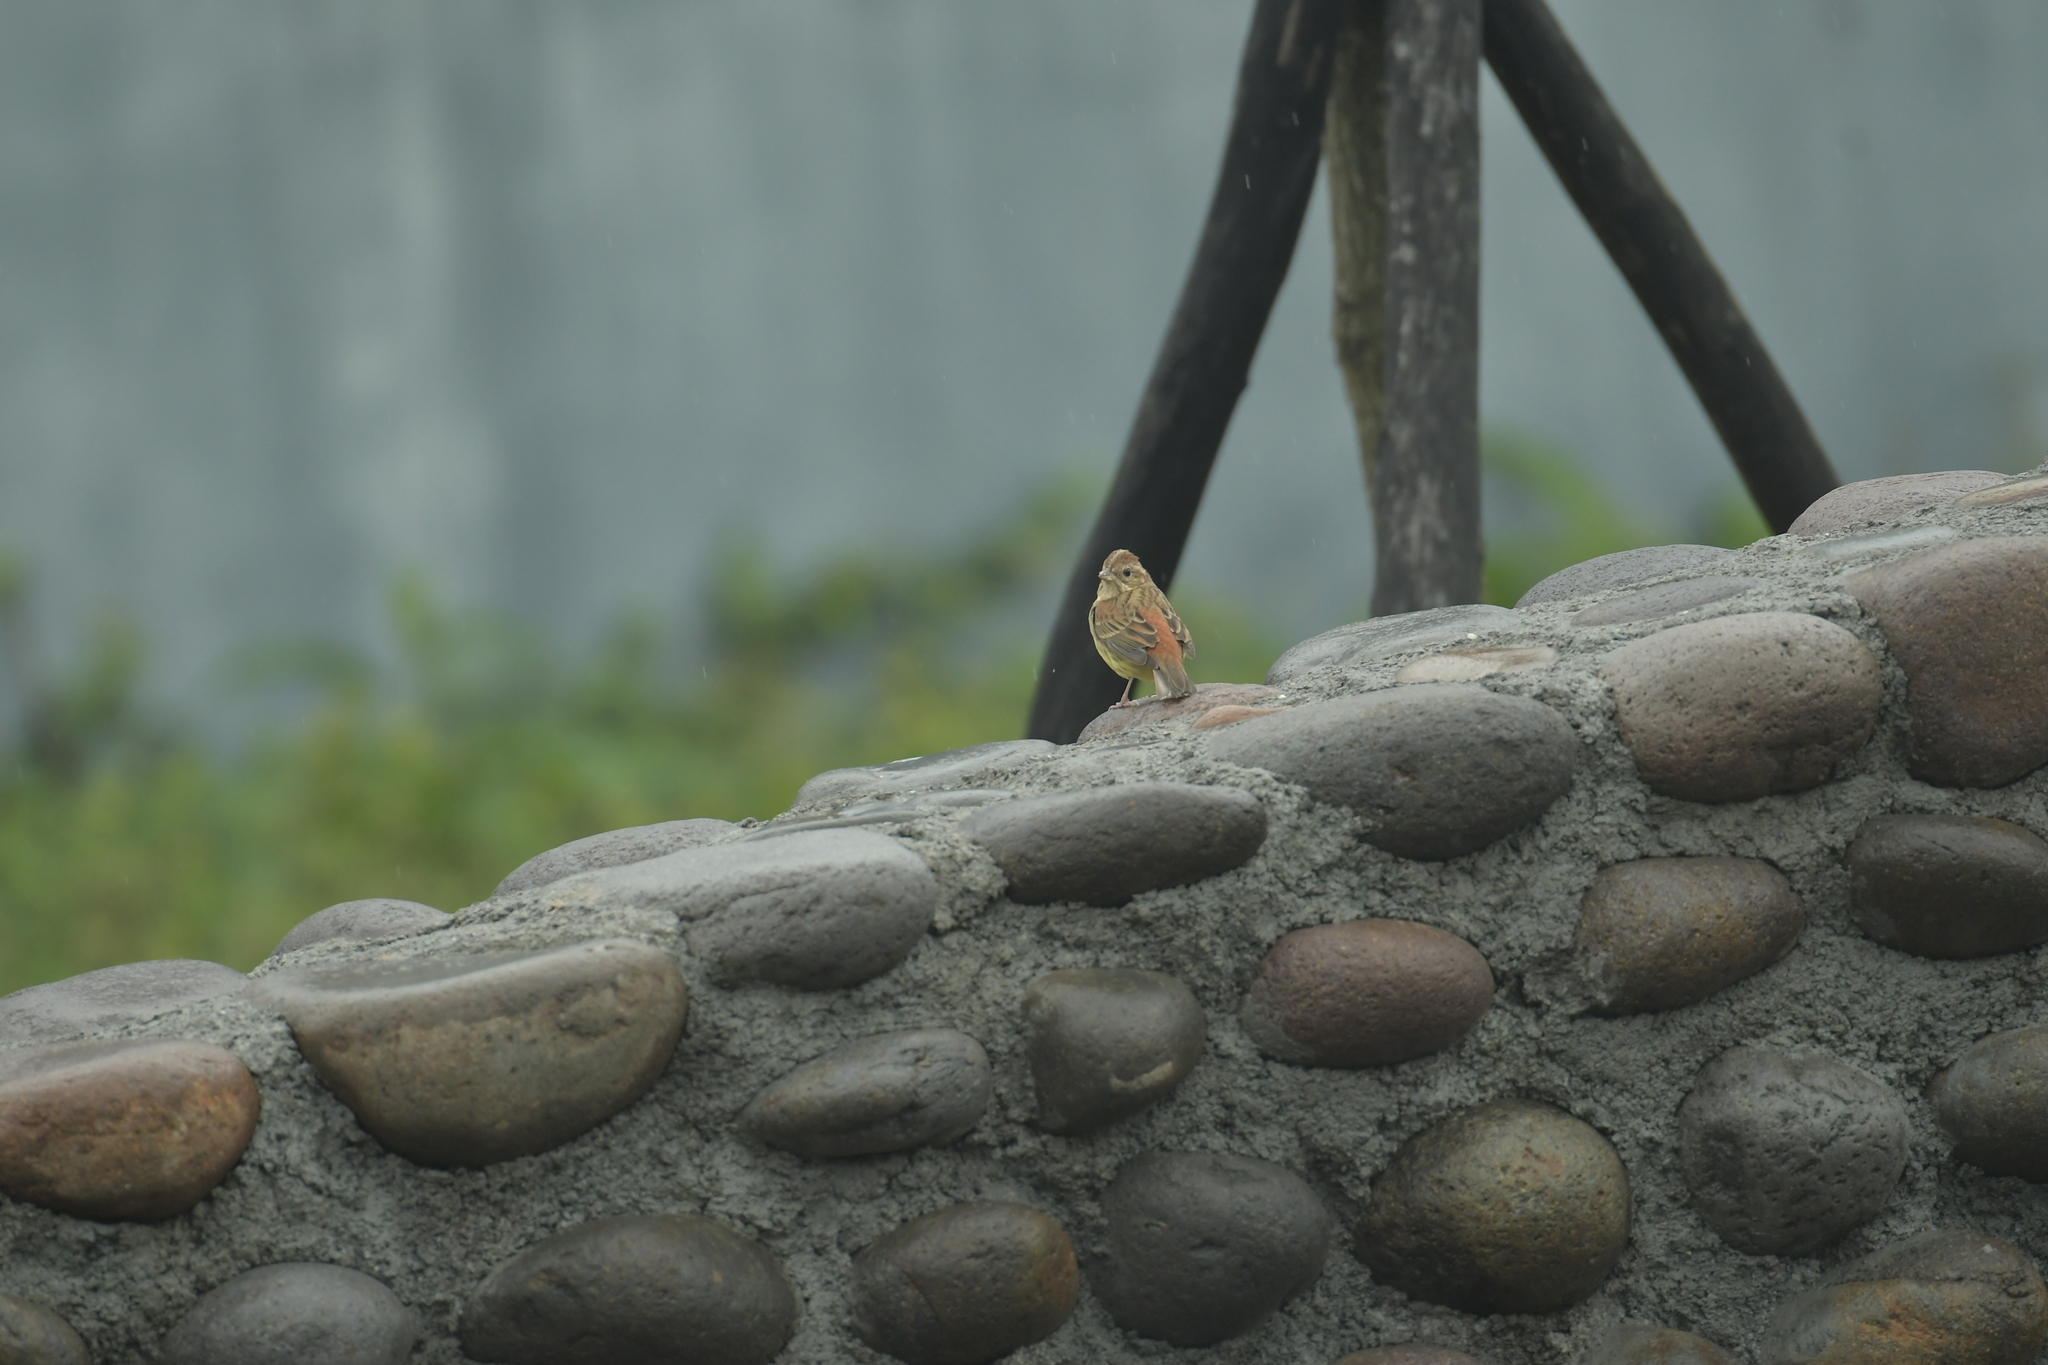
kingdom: Animalia
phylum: Chordata
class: Aves
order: Passeriformes
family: Emberizidae
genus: Emberiza
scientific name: Emberiza rutila
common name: Chestnut bunting
